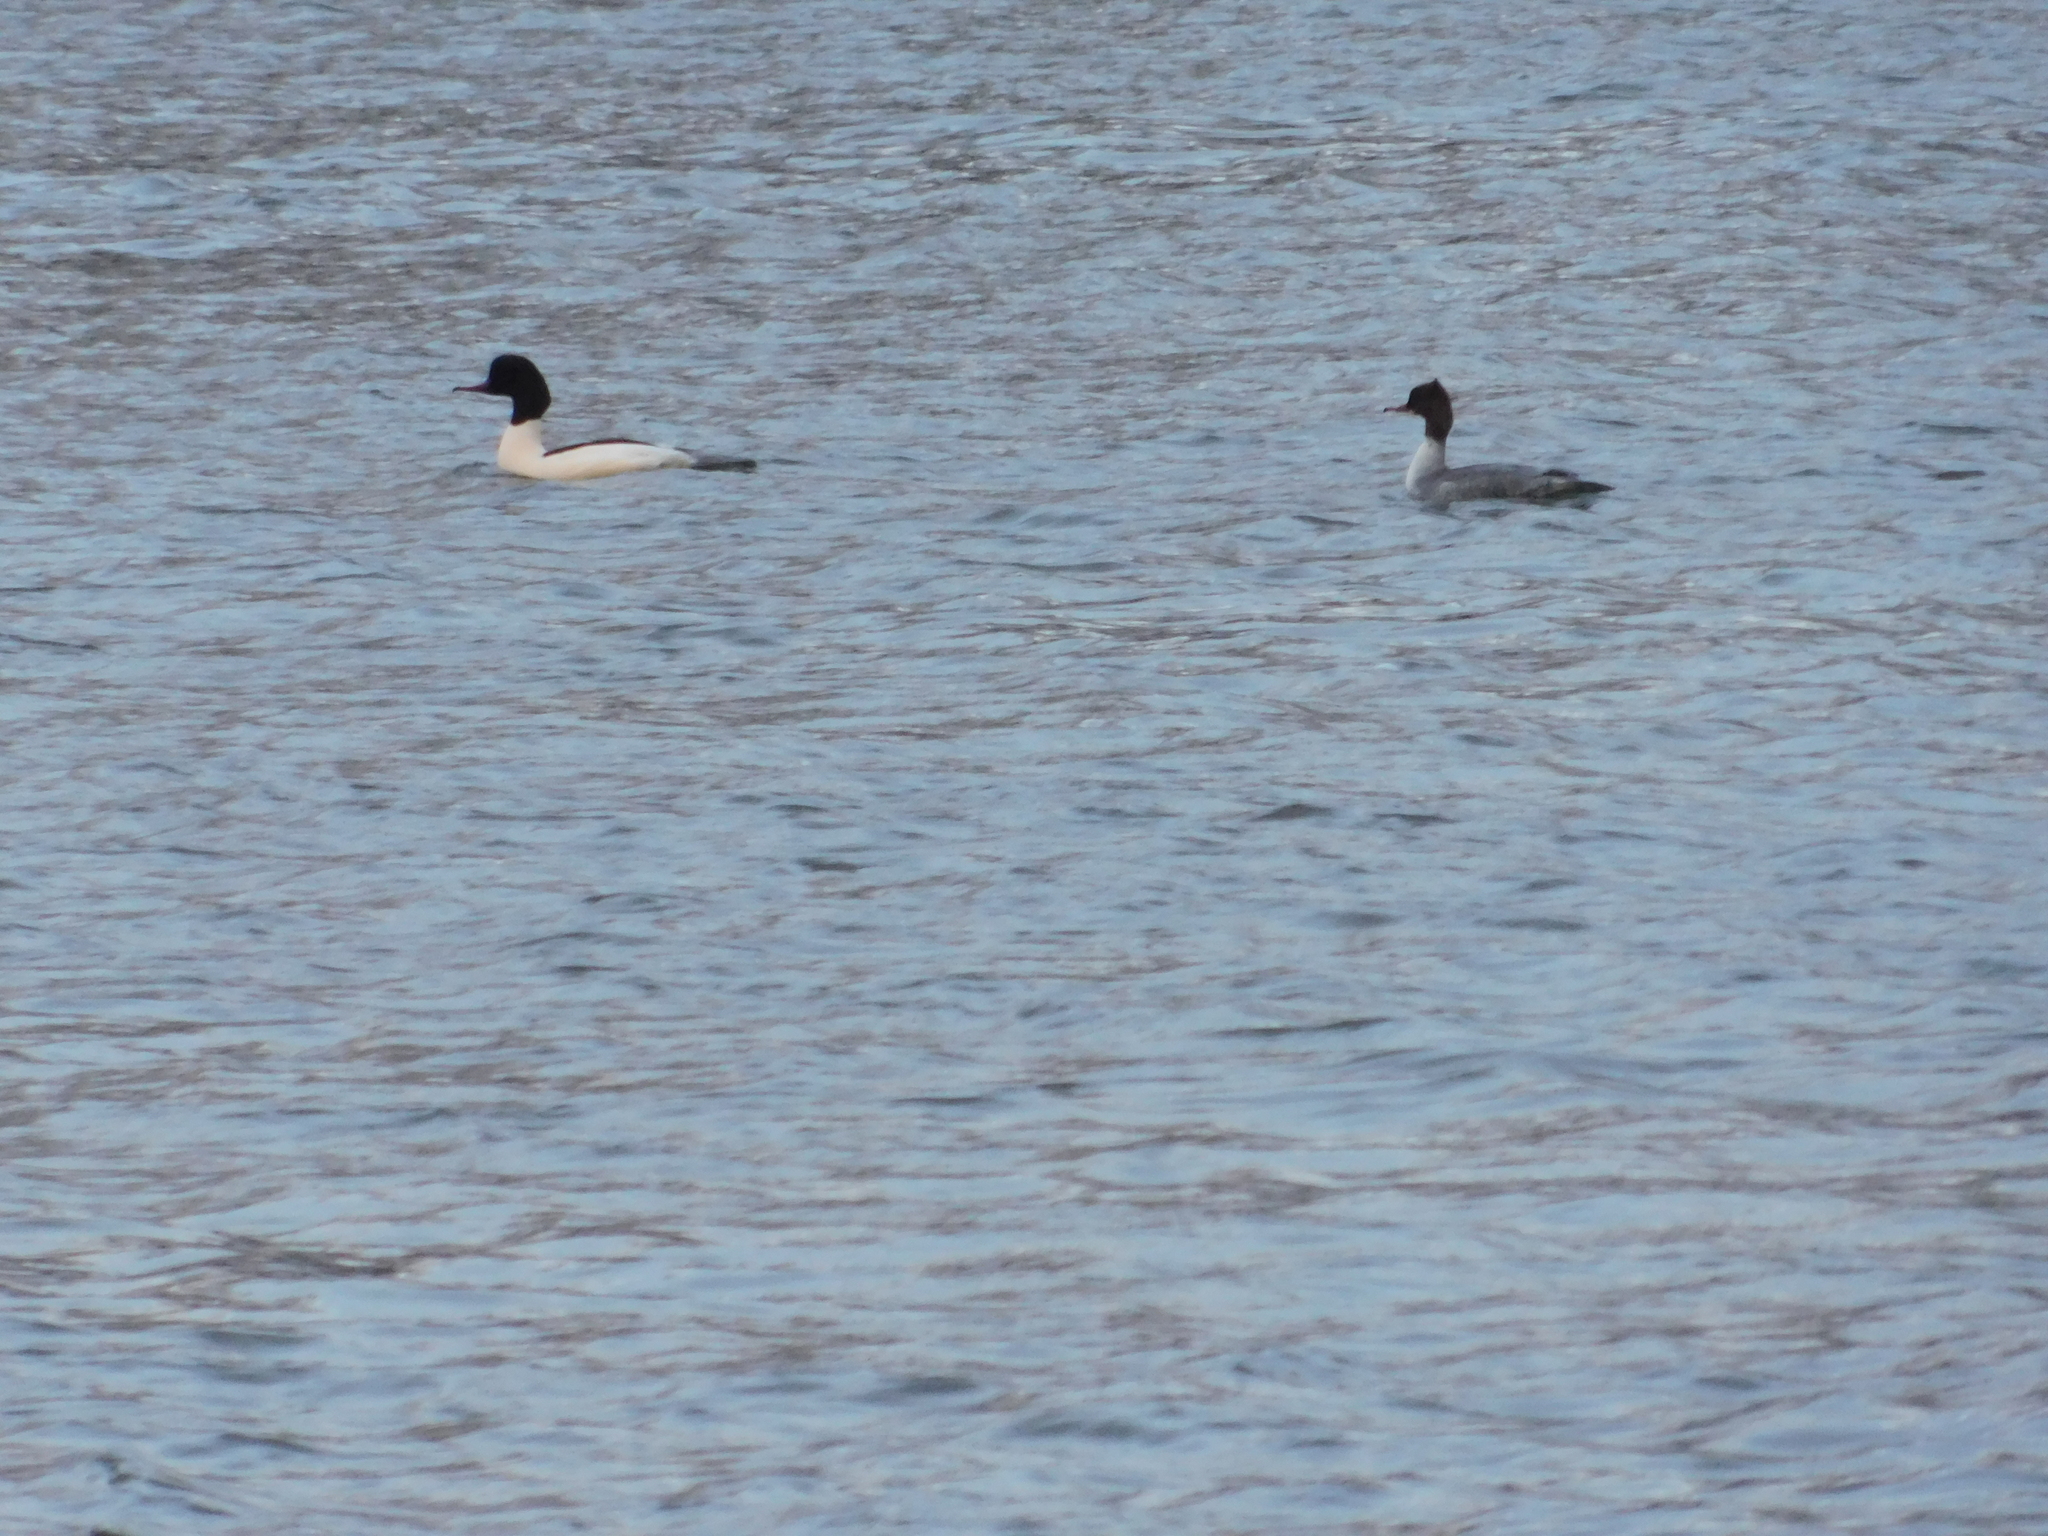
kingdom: Animalia
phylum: Chordata
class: Aves
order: Anseriformes
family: Anatidae
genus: Mergus
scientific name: Mergus merganser
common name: Common merganser
